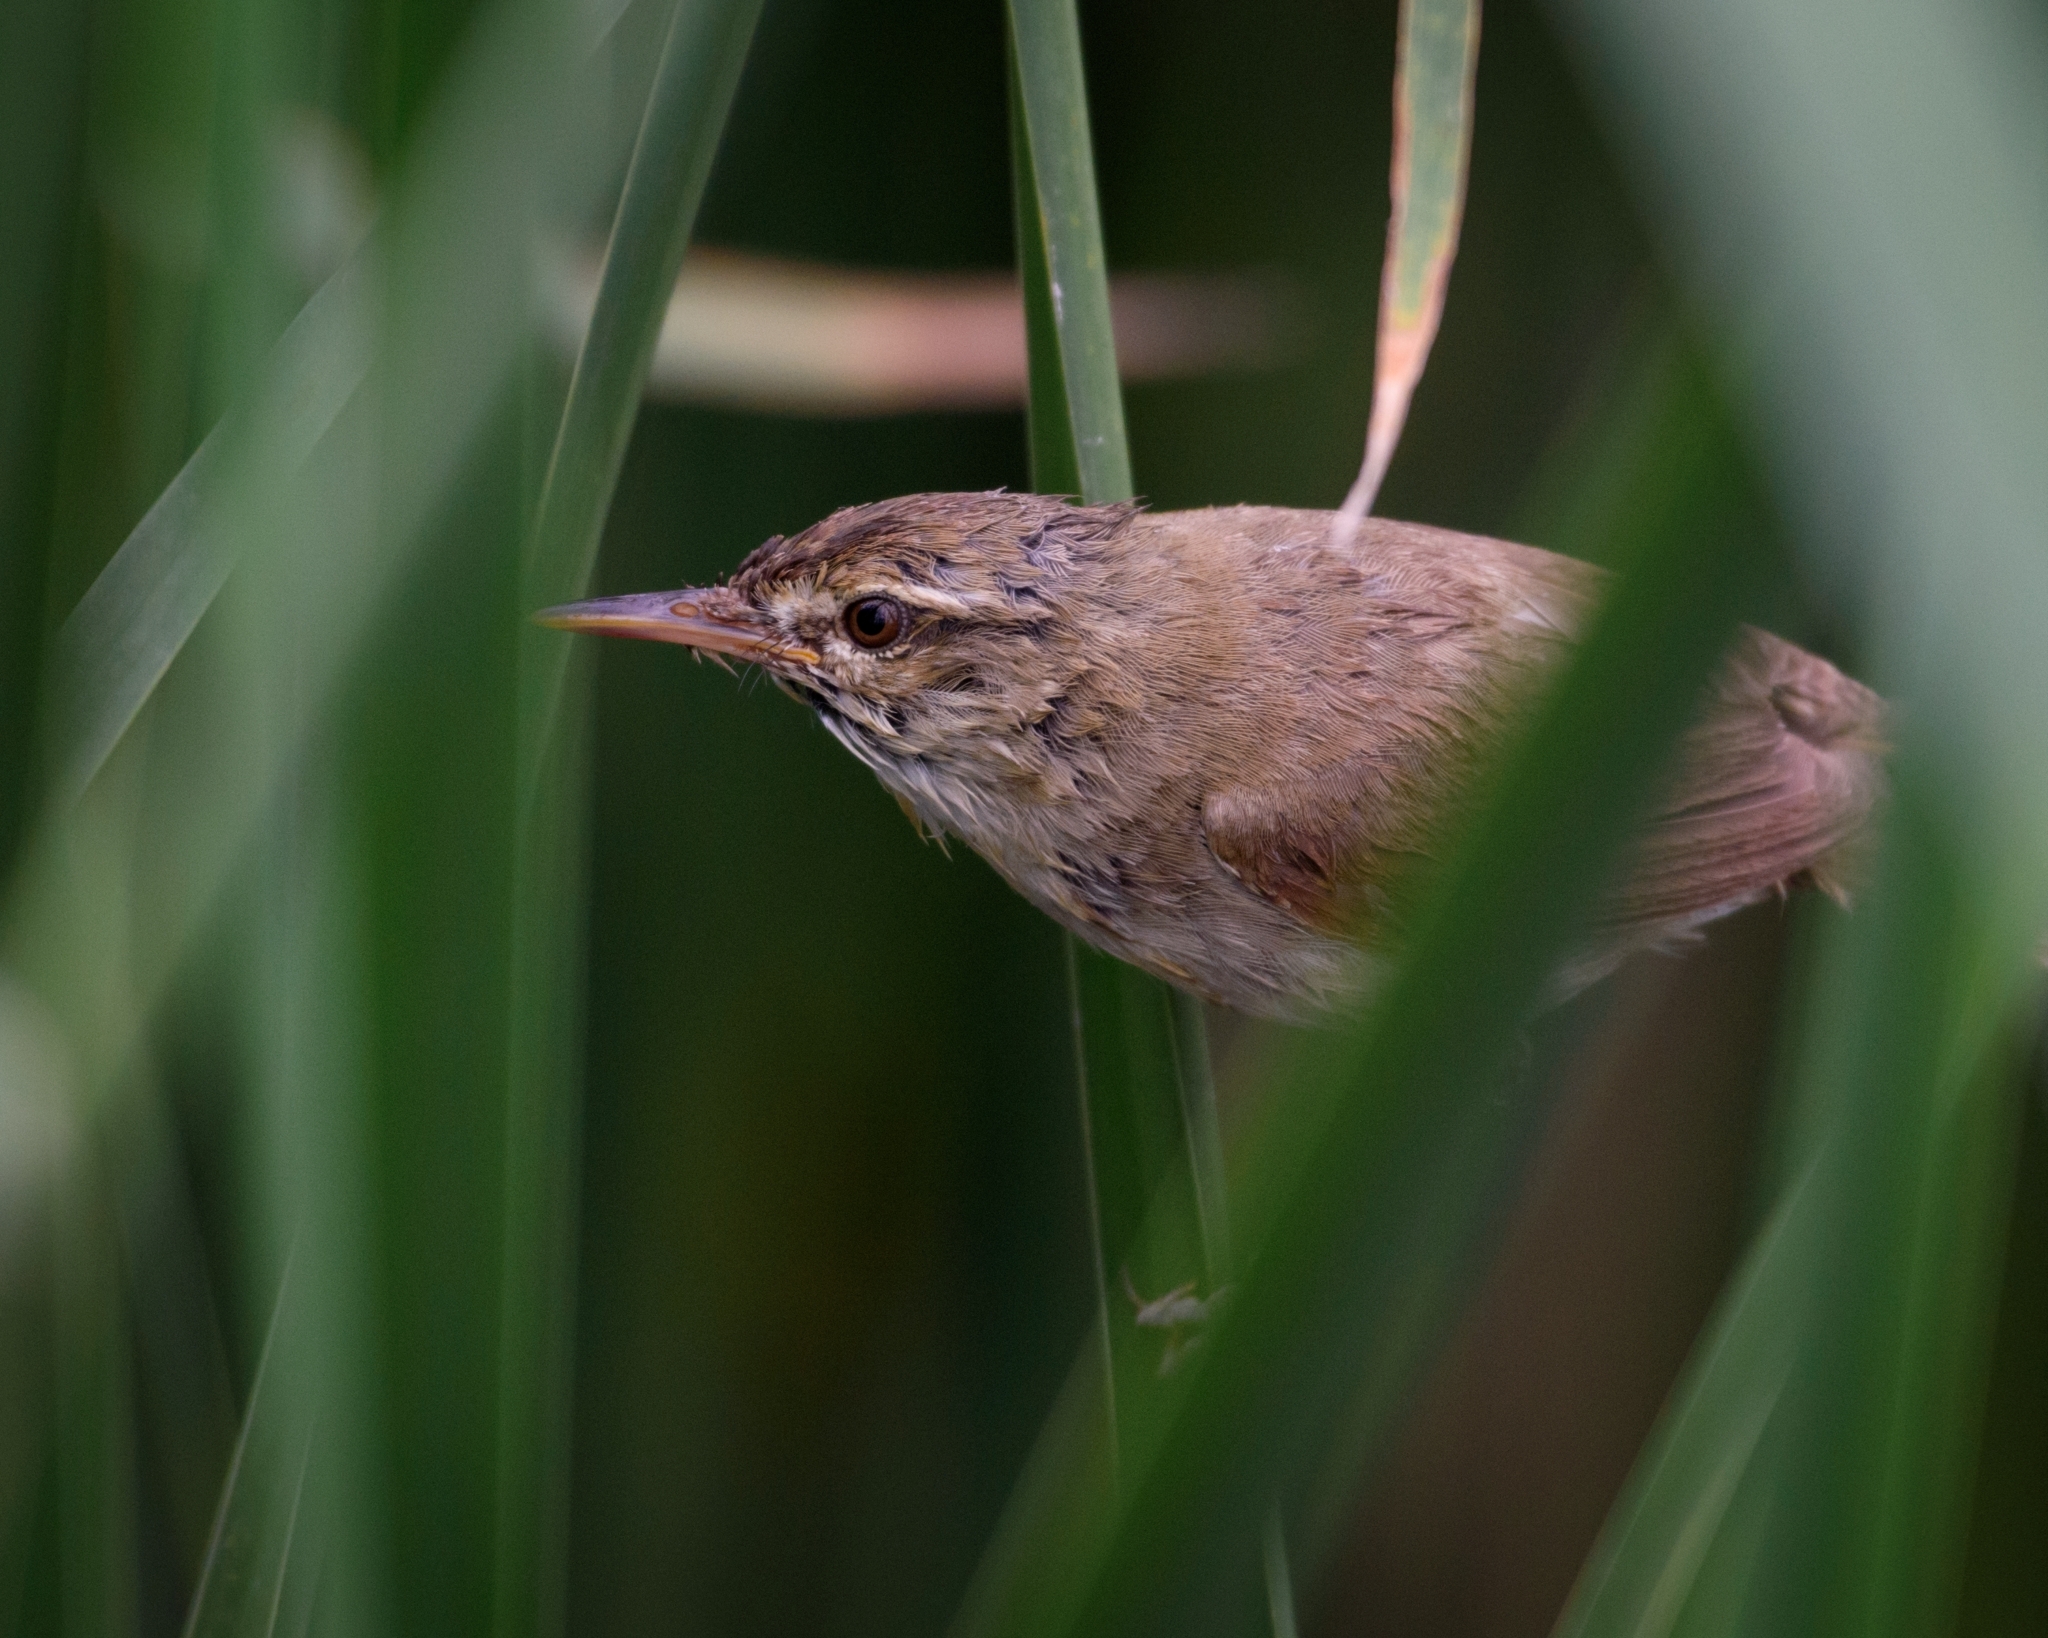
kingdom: Animalia
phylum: Chordata
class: Aves
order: Passeriformes
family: Acrocephalidae
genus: Acrocephalus
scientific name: Acrocephalus scirpaceus
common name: Eurasian reed warbler
